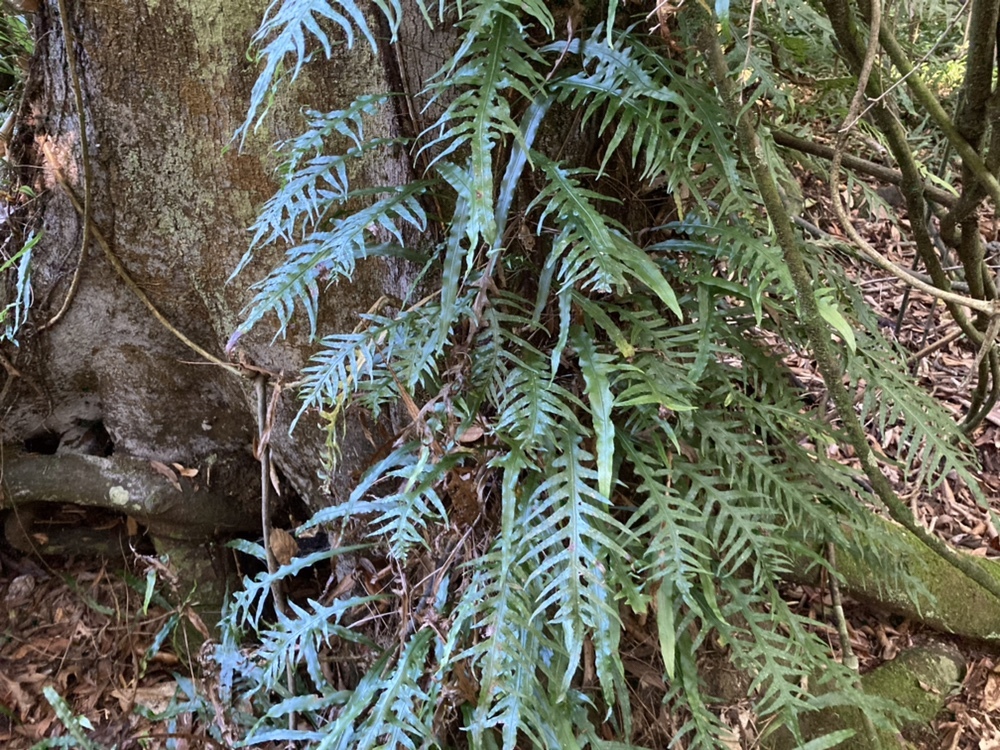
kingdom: Plantae
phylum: Tracheophyta
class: Polypodiopsida
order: Polypodiales
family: Polypodiaceae
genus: Lecanopteris
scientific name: Lecanopteris scandens
